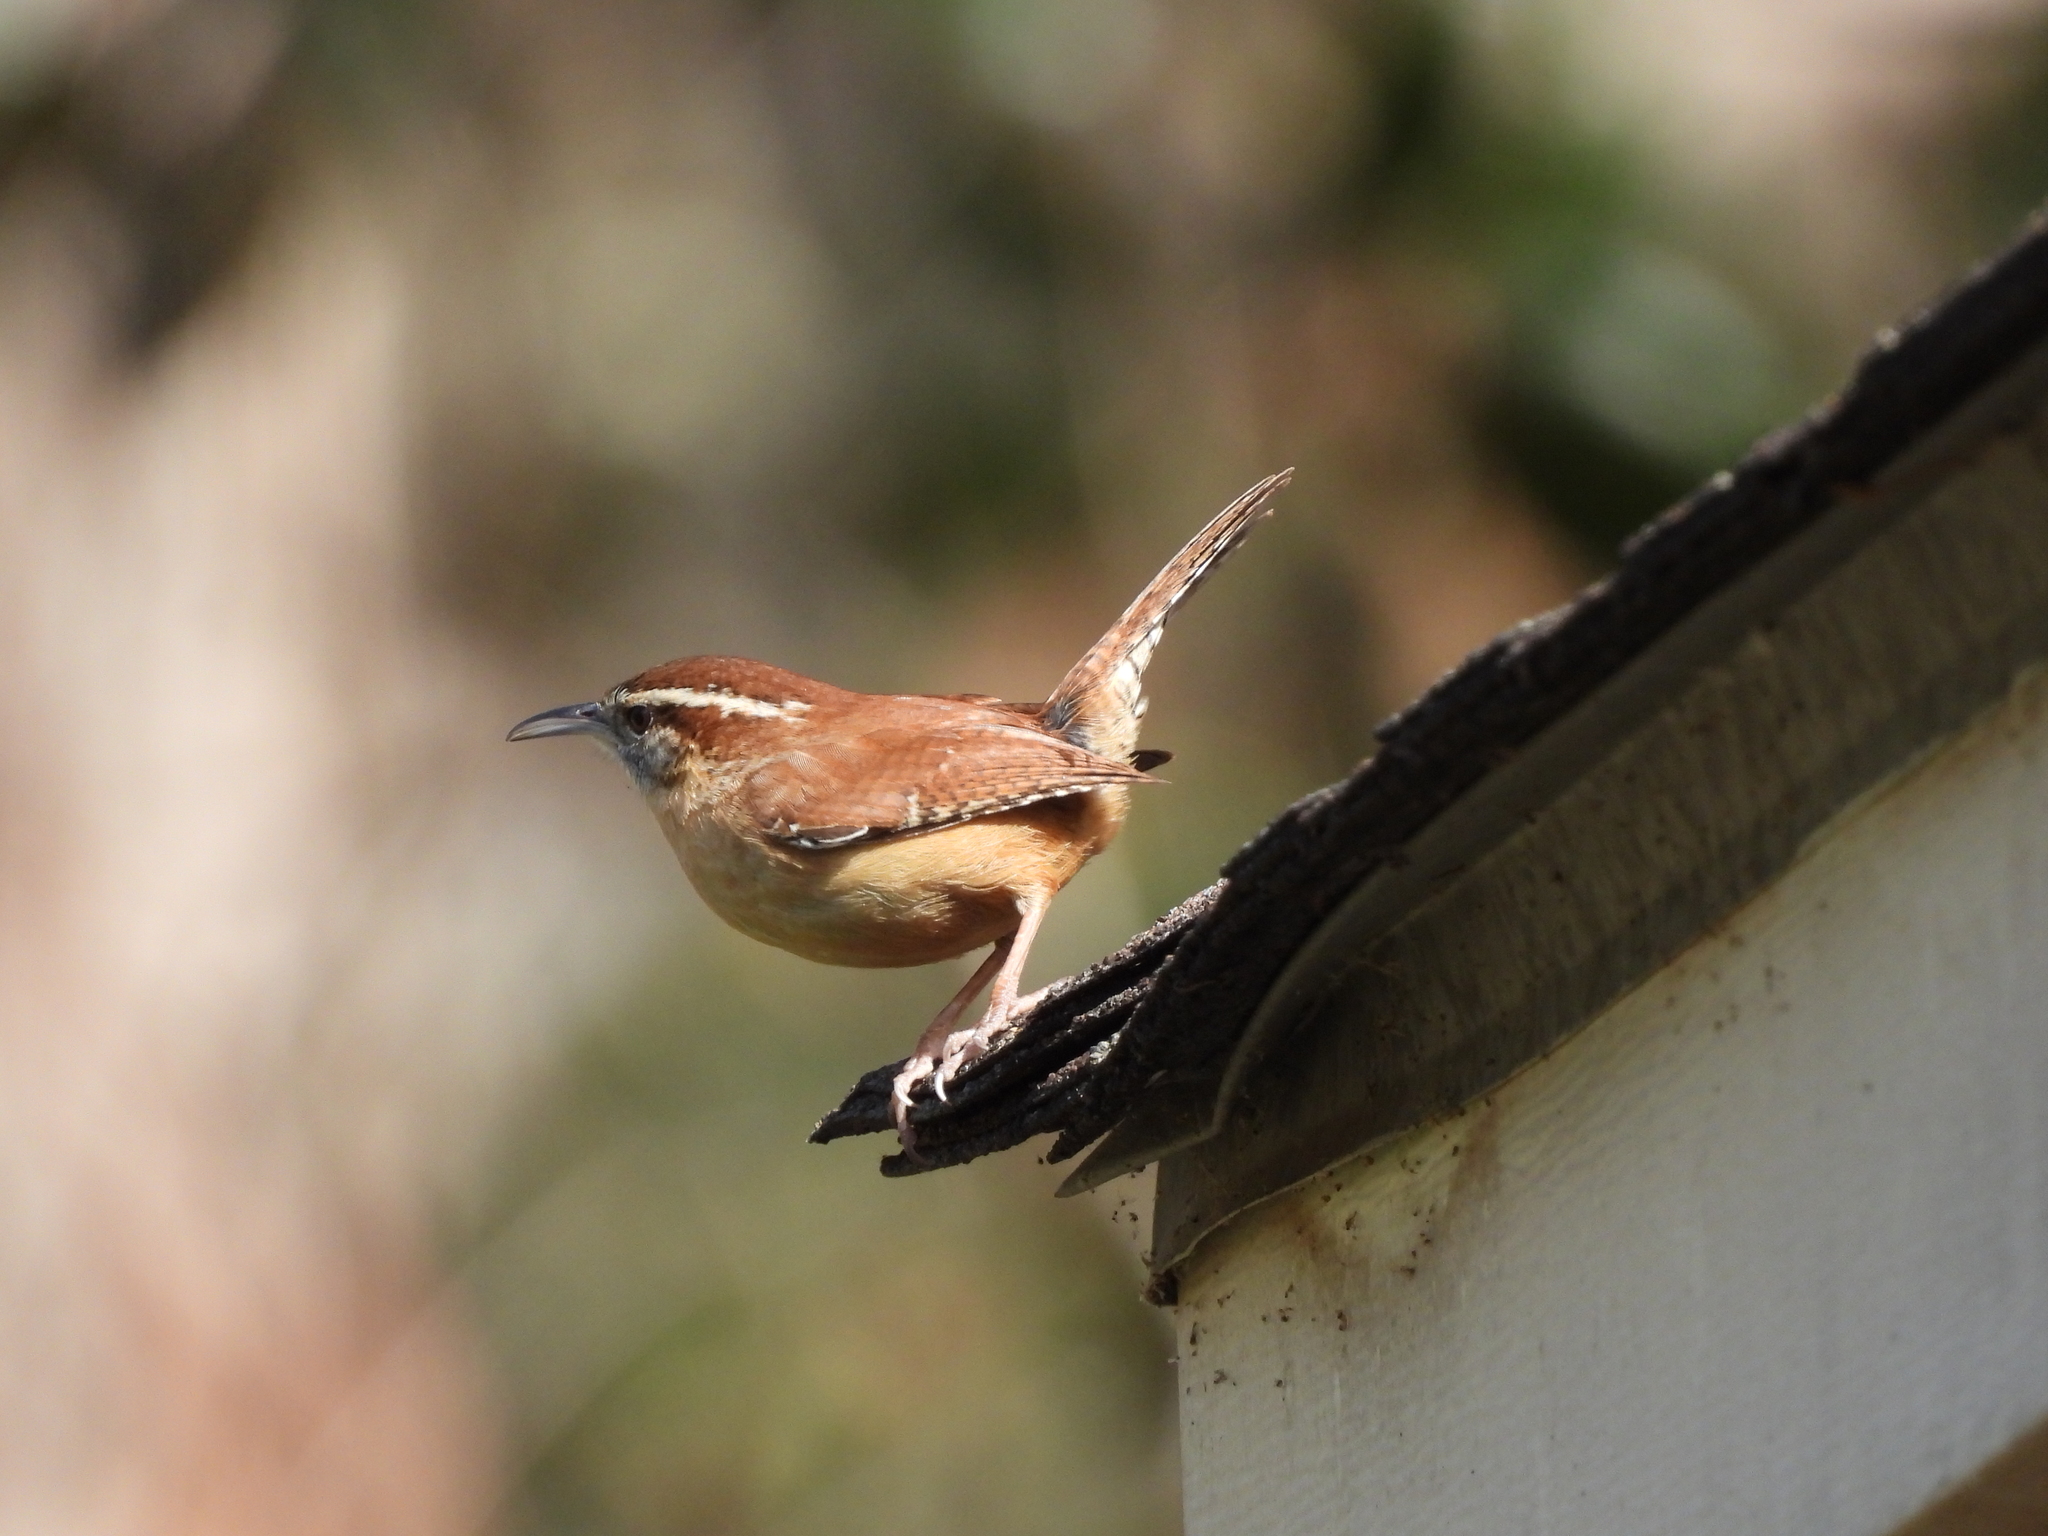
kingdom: Animalia
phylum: Chordata
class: Aves
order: Passeriformes
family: Troglodytidae
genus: Thryothorus
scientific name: Thryothorus ludovicianus
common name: Carolina wren
